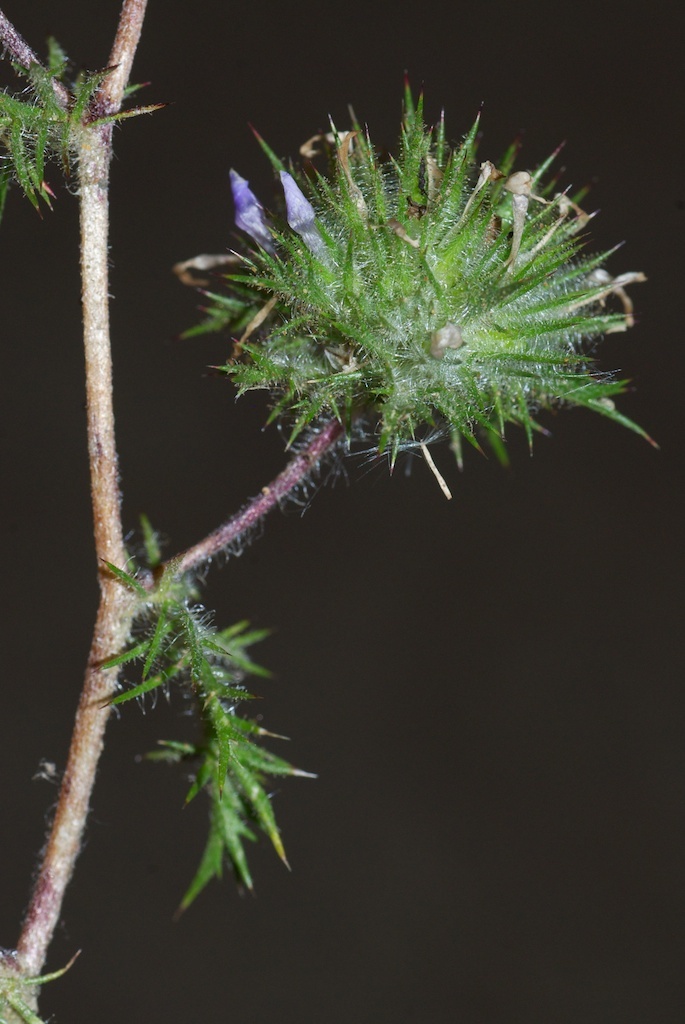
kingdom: Plantae
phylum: Tracheophyta
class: Magnoliopsida
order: Ericales
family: Polemoniaceae
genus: Navarretia
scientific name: Navarretia squarrosa
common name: Skunkweed
